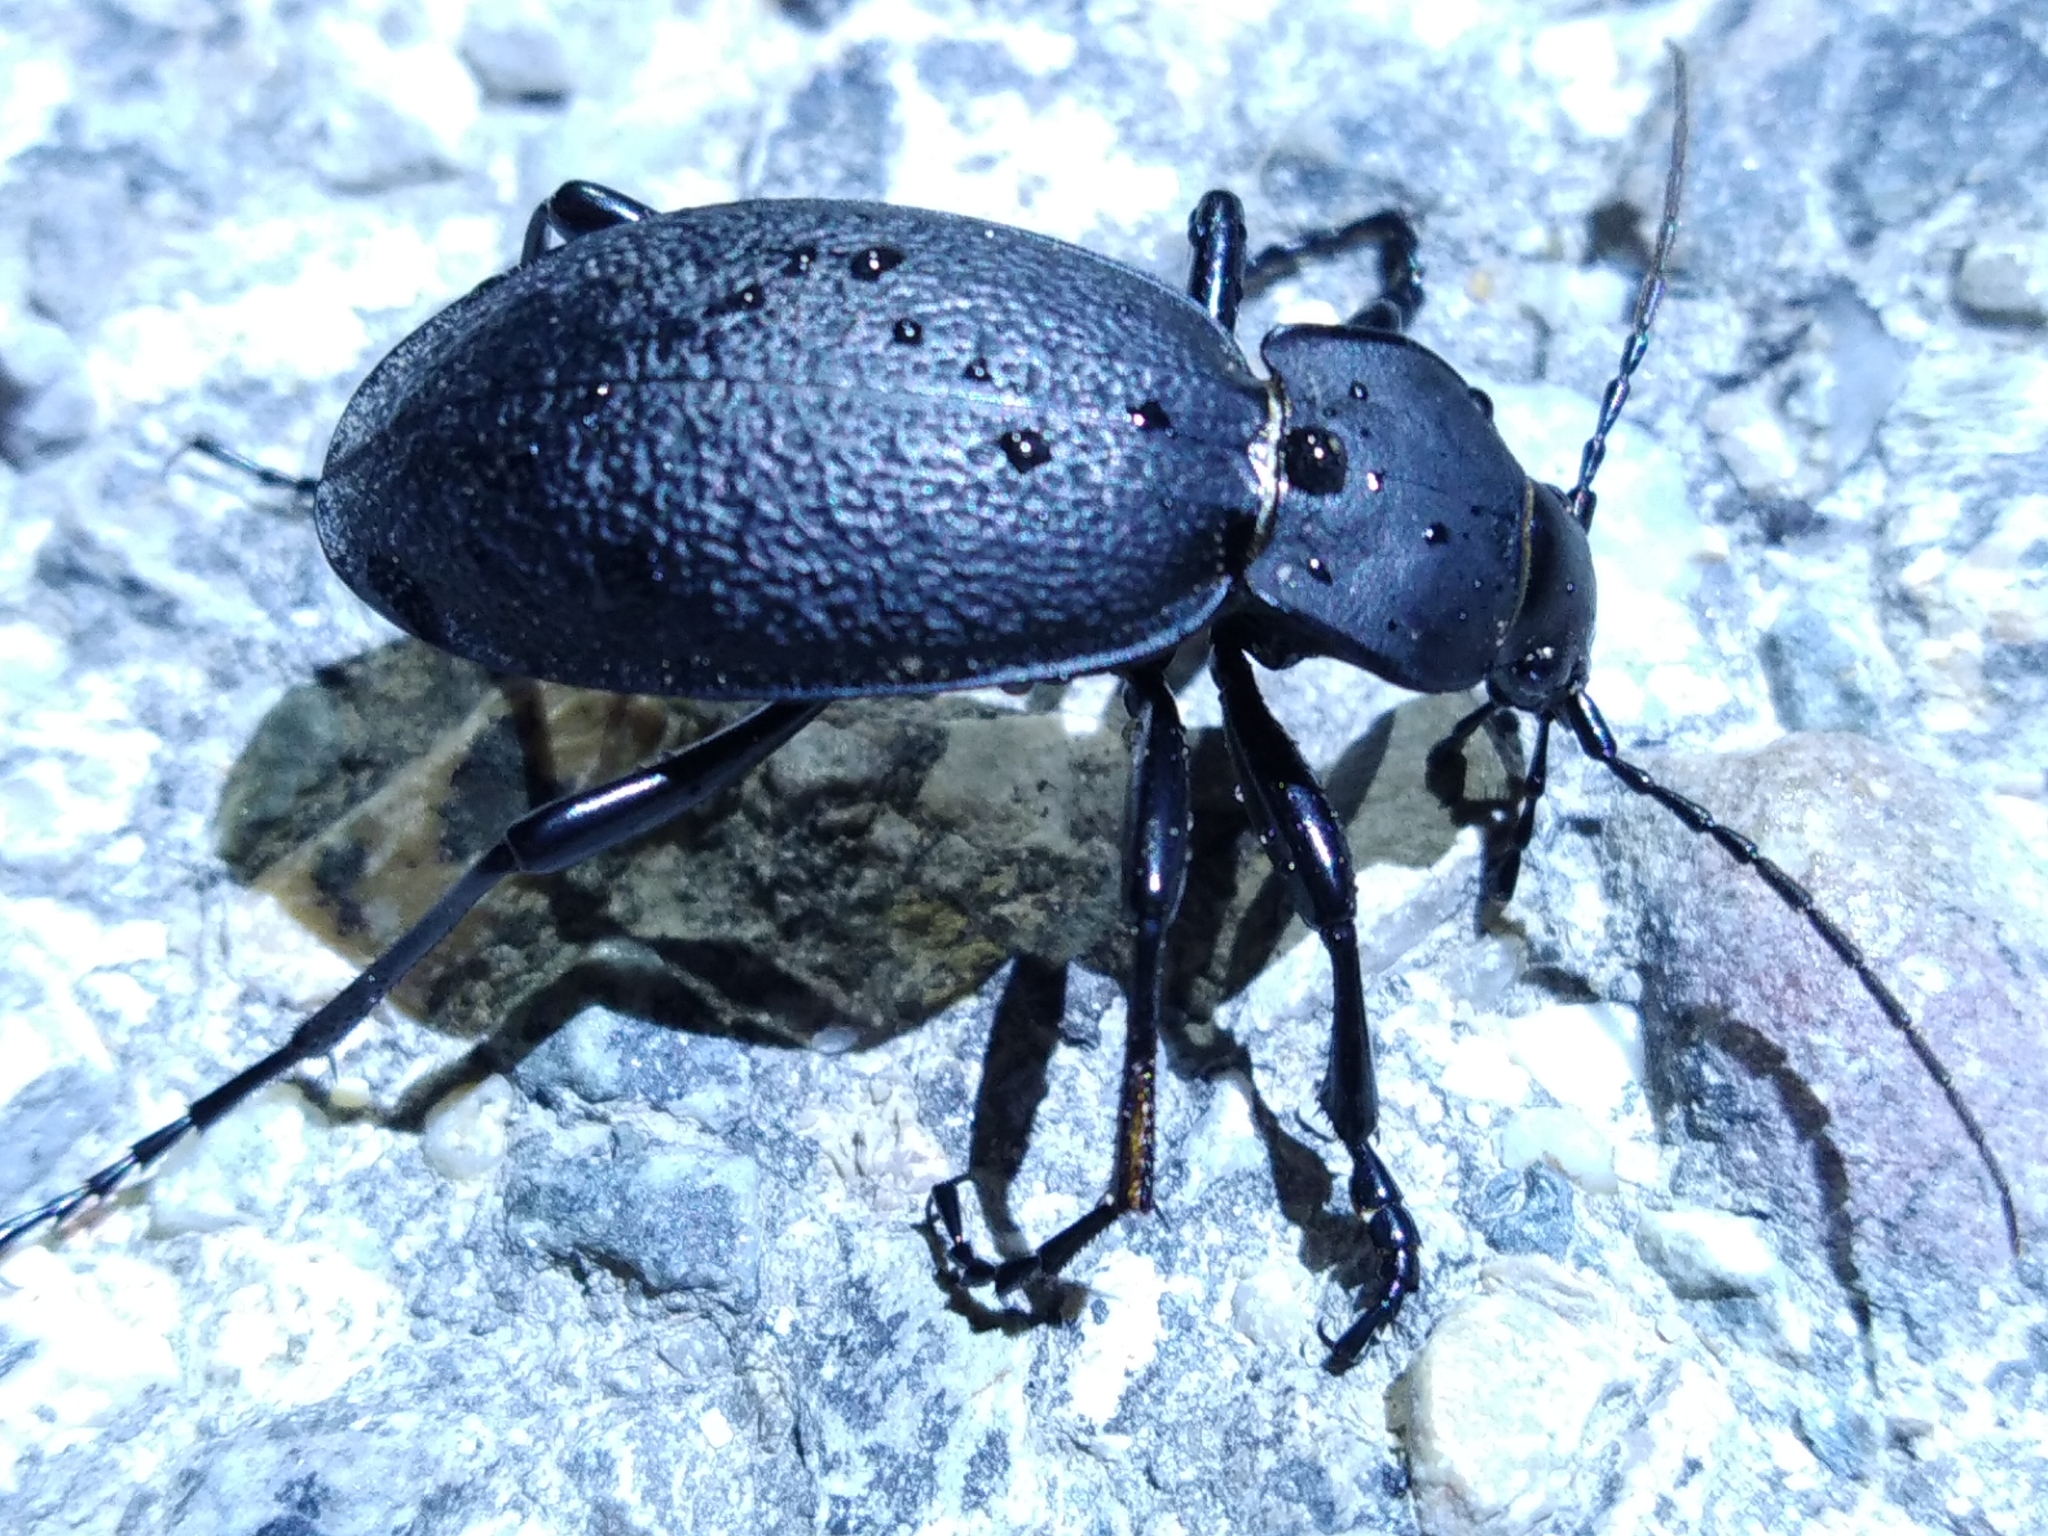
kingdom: Animalia
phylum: Arthropoda
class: Insecta
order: Coleoptera
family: Carabidae
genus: Carabus
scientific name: Carabus coriaceus
